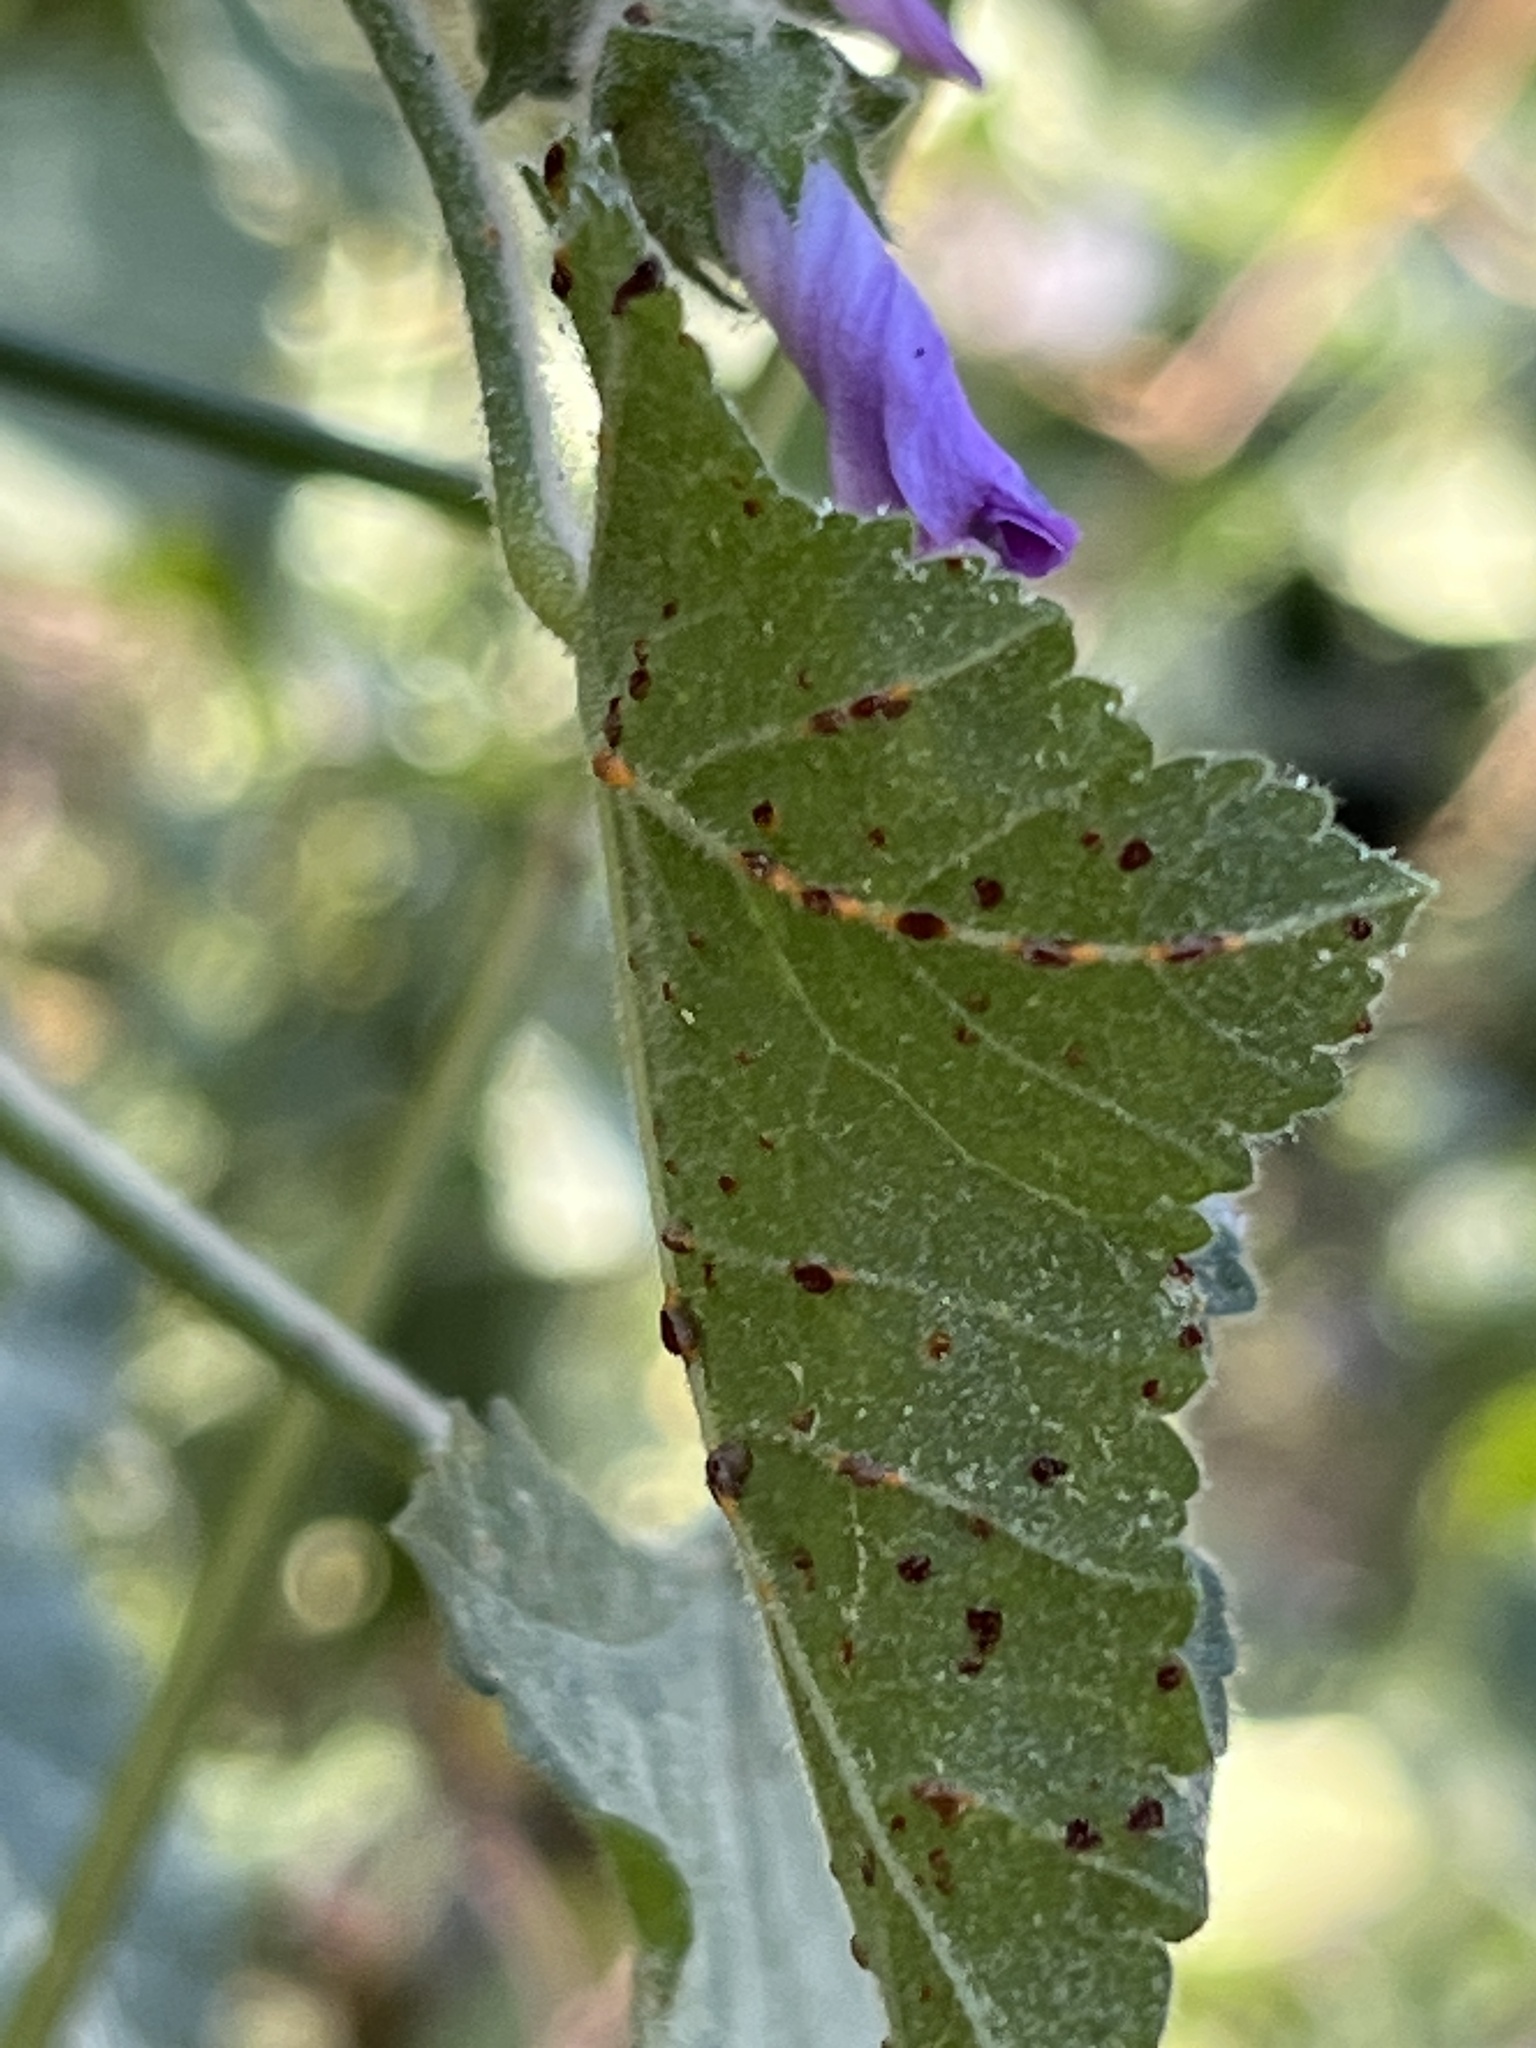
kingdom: Fungi
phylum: Basidiomycota
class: Pucciniomycetes
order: Pucciniales
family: Pucciniaceae
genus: Puccinia
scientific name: Puccinia malvacearum
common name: Hollyhock rust
